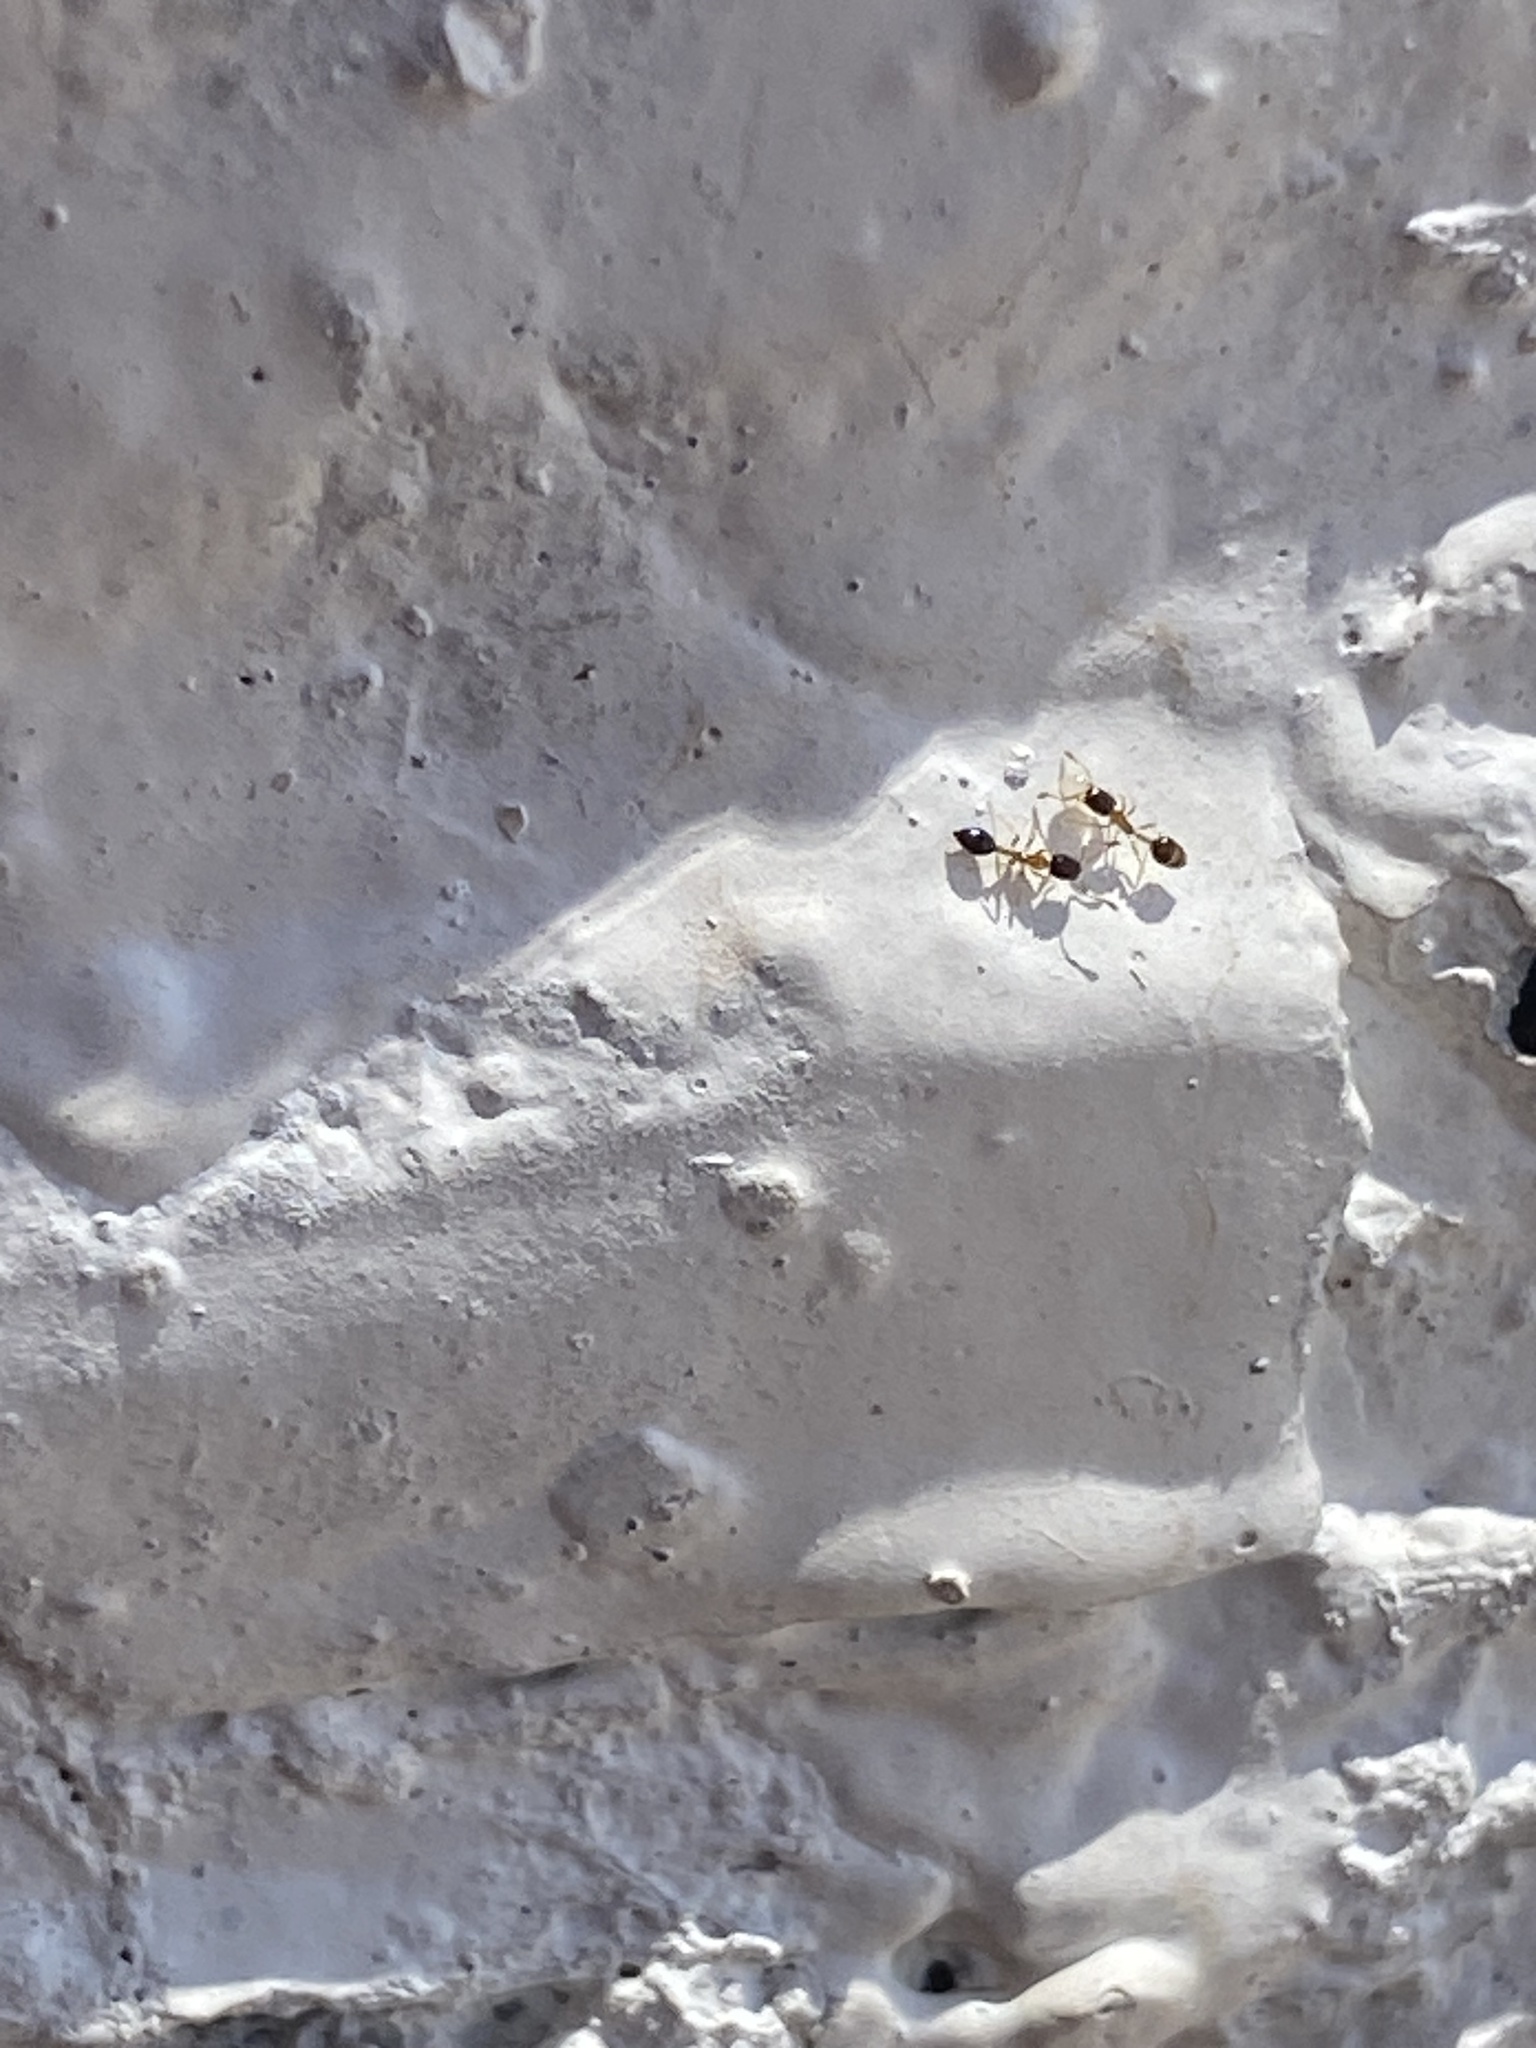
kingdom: Animalia
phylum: Arthropoda
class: Insecta
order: Hymenoptera
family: Formicidae
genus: Monomorium
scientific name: Monomorium floricola
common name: Bicolored trailing ant
